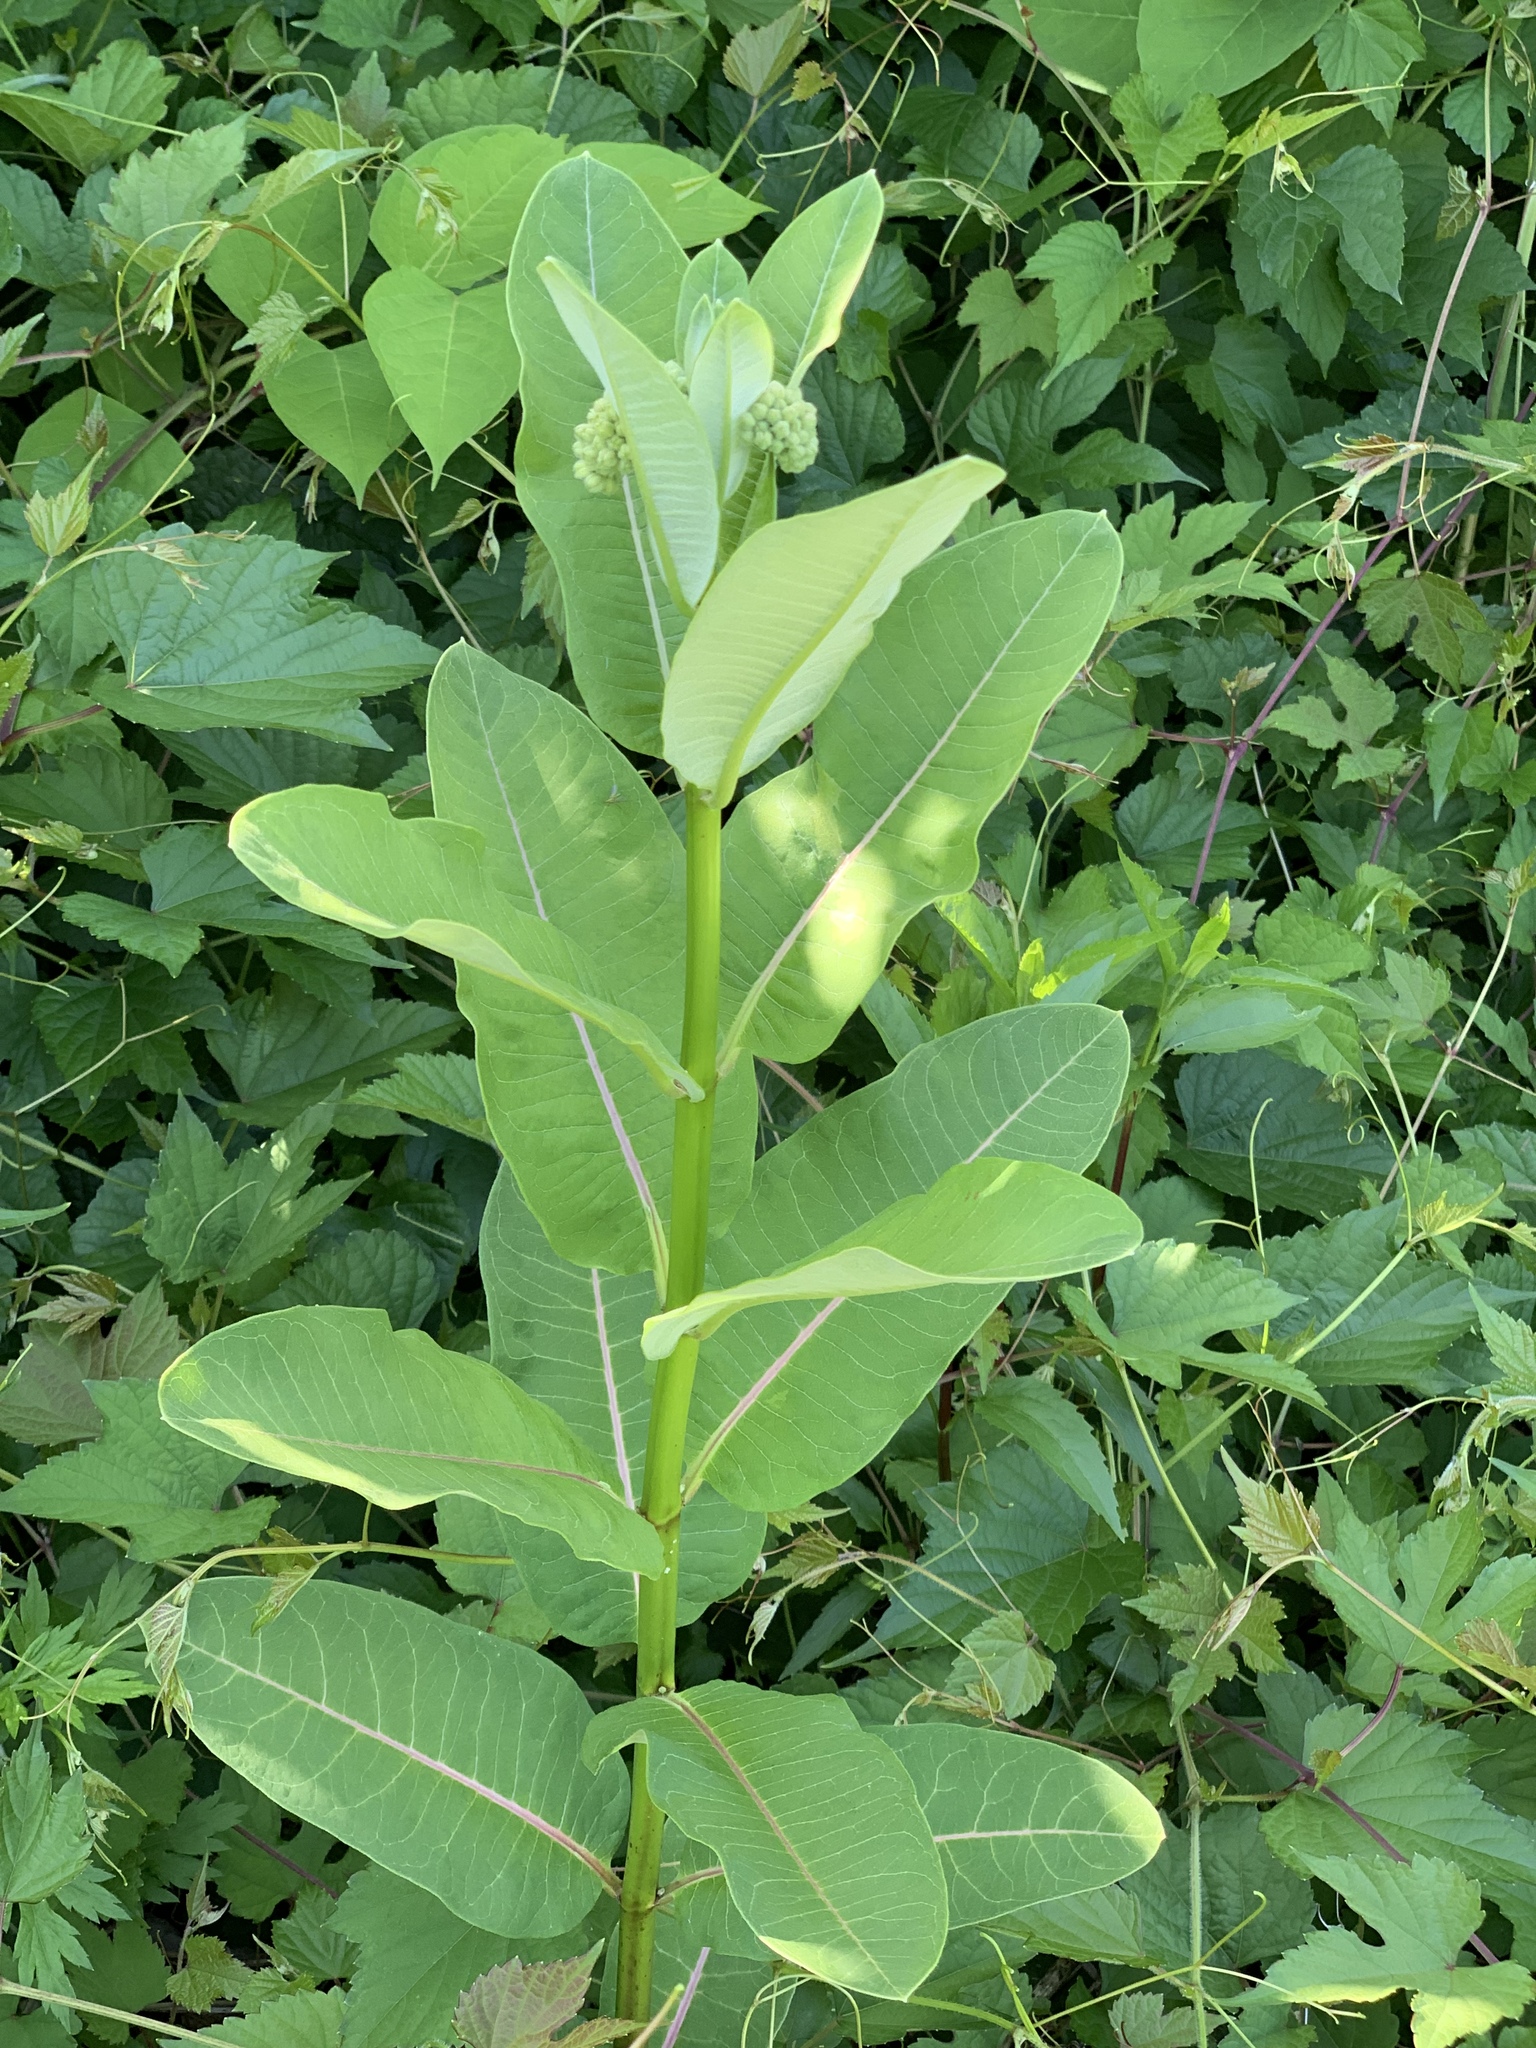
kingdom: Plantae
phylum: Tracheophyta
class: Magnoliopsida
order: Gentianales
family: Apocynaceae
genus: Asclepias
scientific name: Asclepias syriaca
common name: Common milkweed
